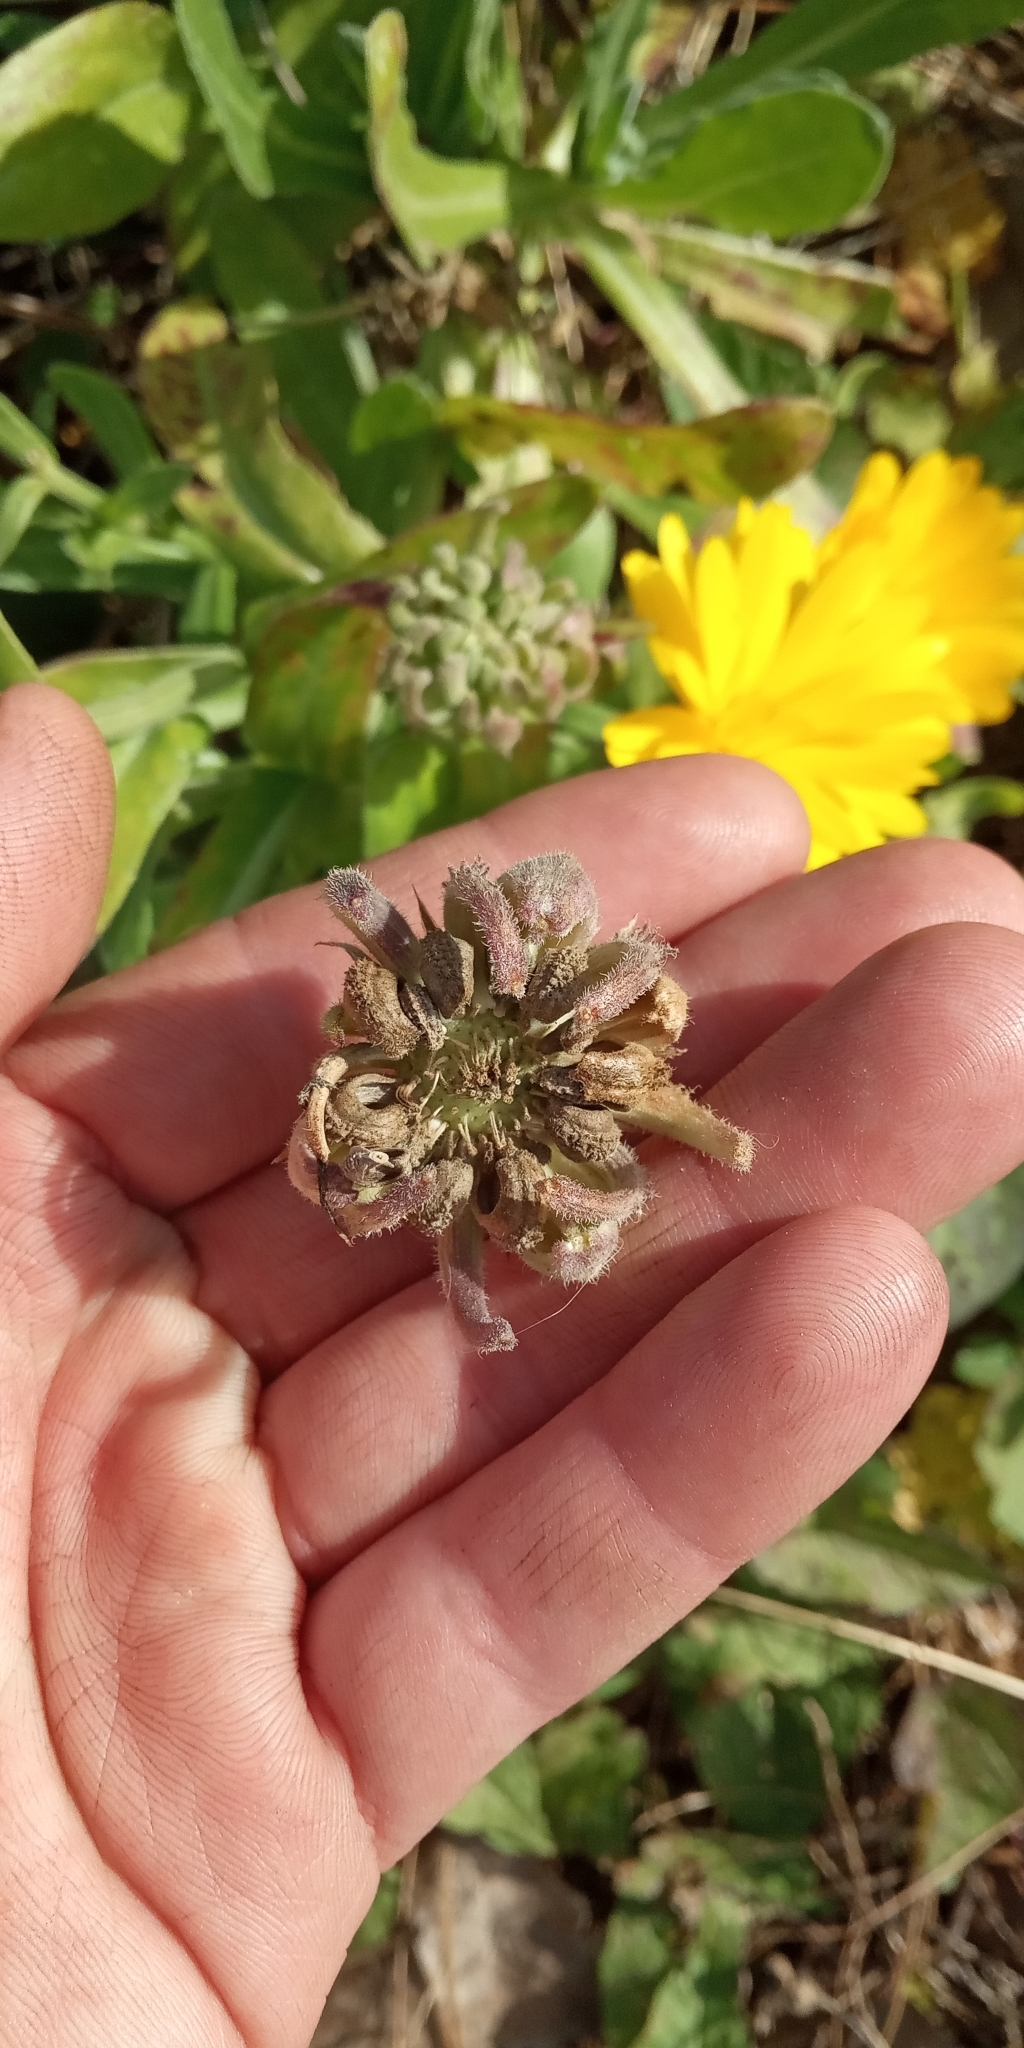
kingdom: Plantae
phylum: Tracheophyta
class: Magnoliopsida
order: Asterales
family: Asteraceae
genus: Calendula
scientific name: Calendula officinalis
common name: Pot marigold
